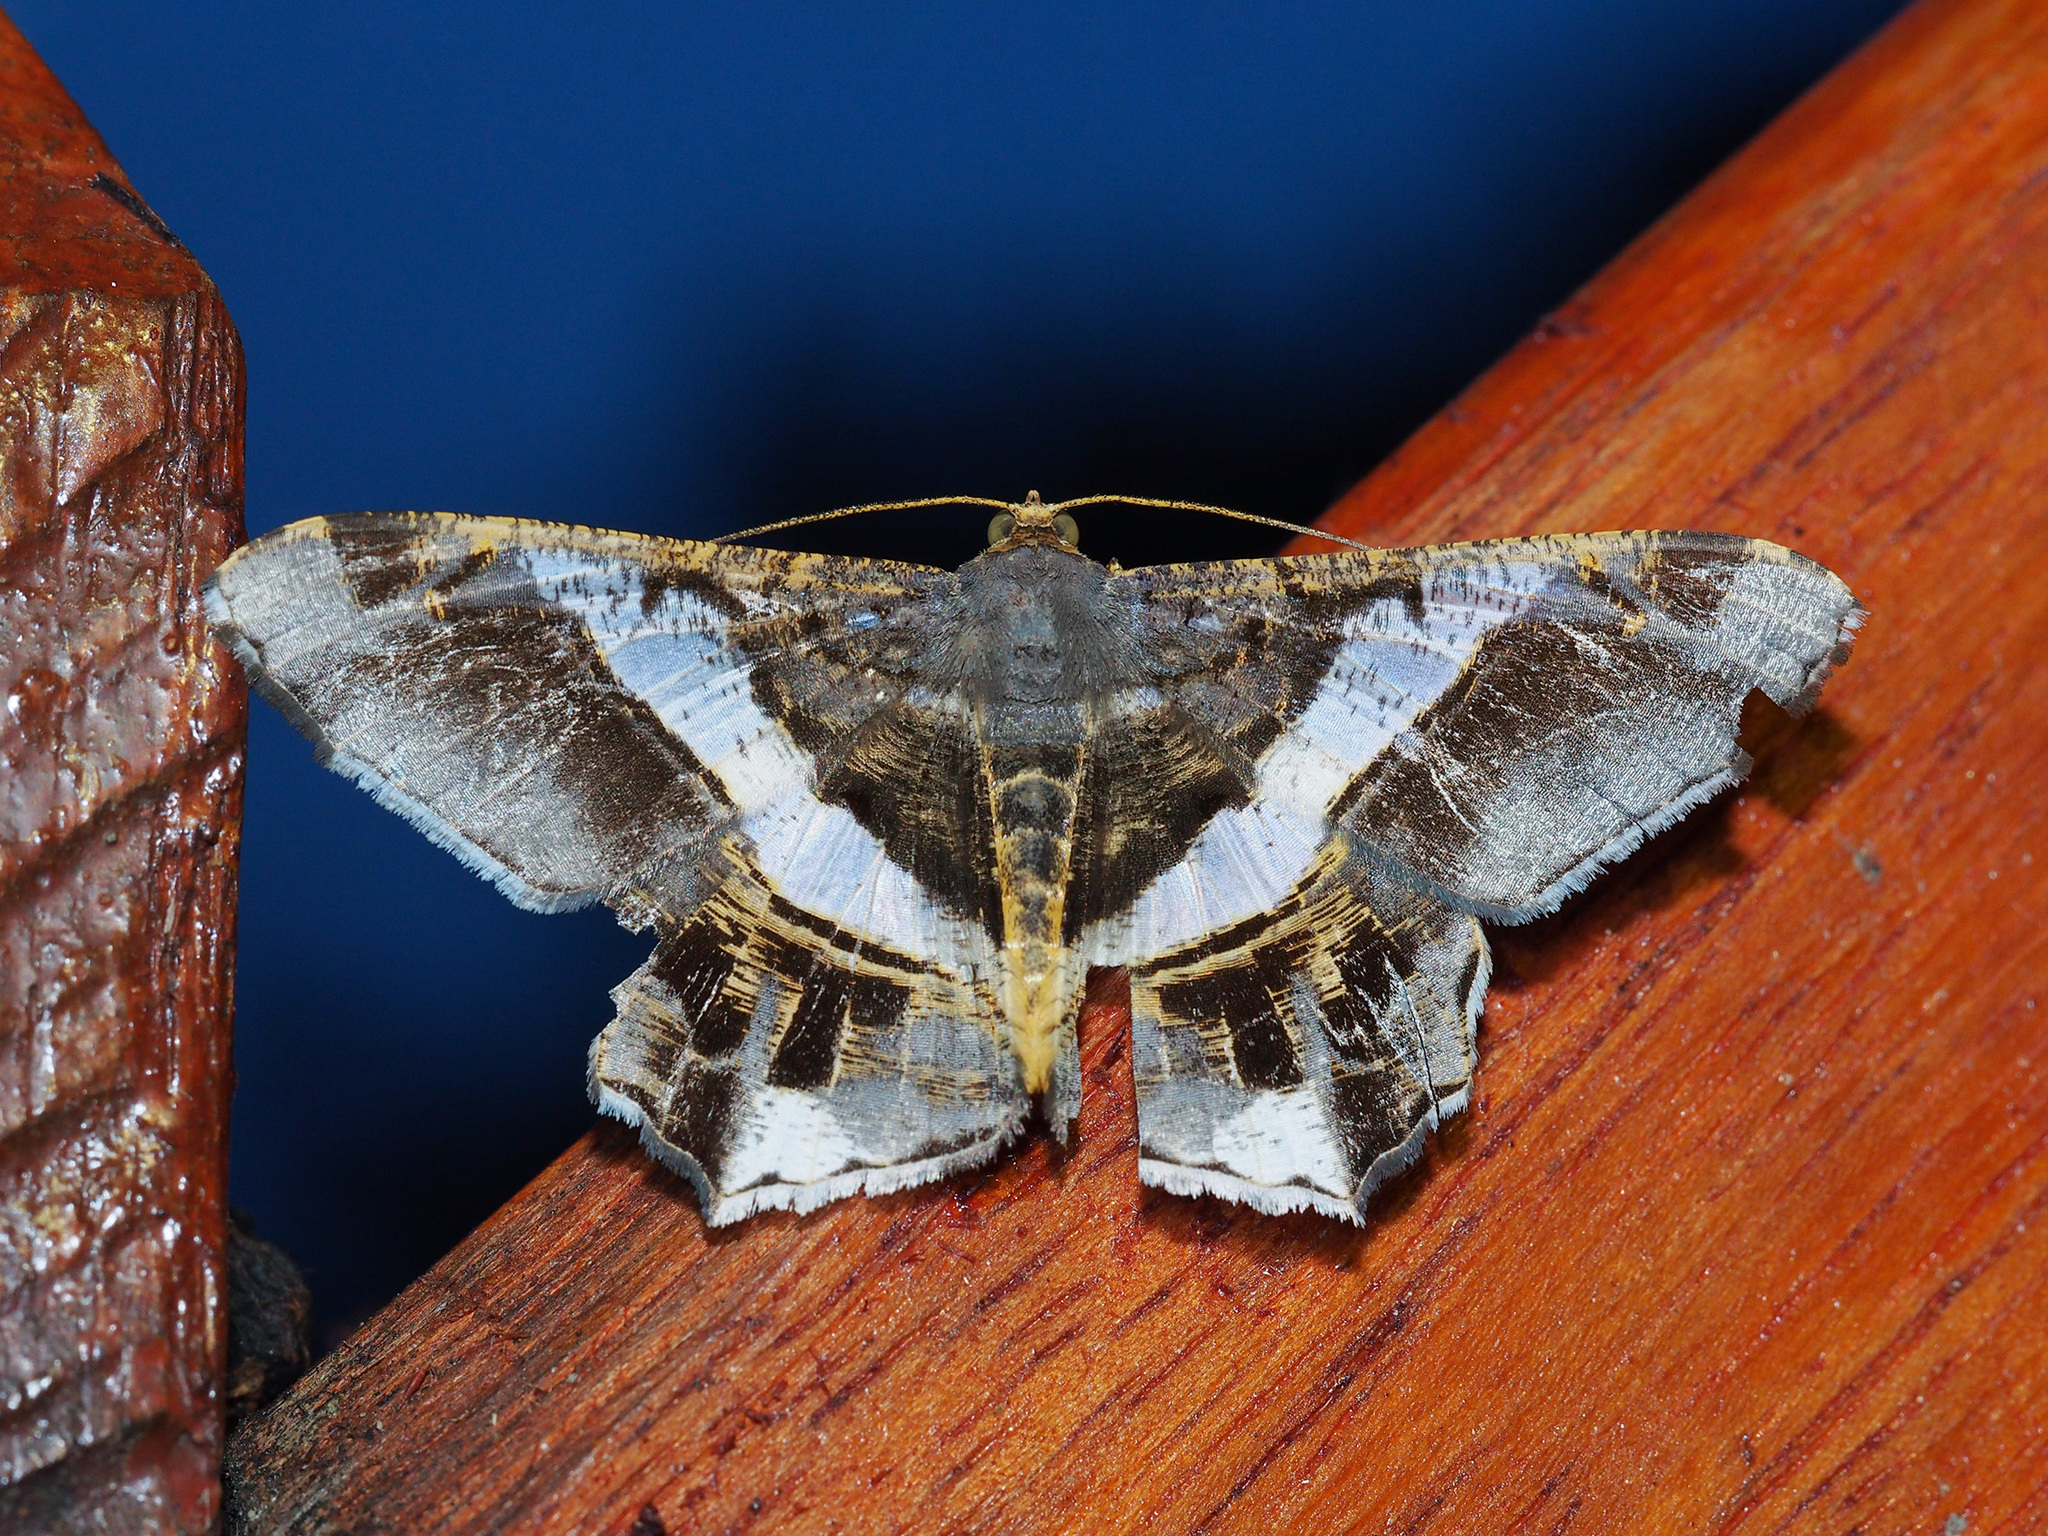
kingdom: Animalia
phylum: Arthropoda
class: Insecta
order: Lepidoptera
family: Geometridae
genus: Chiasmia
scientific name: Chiasmia nora
